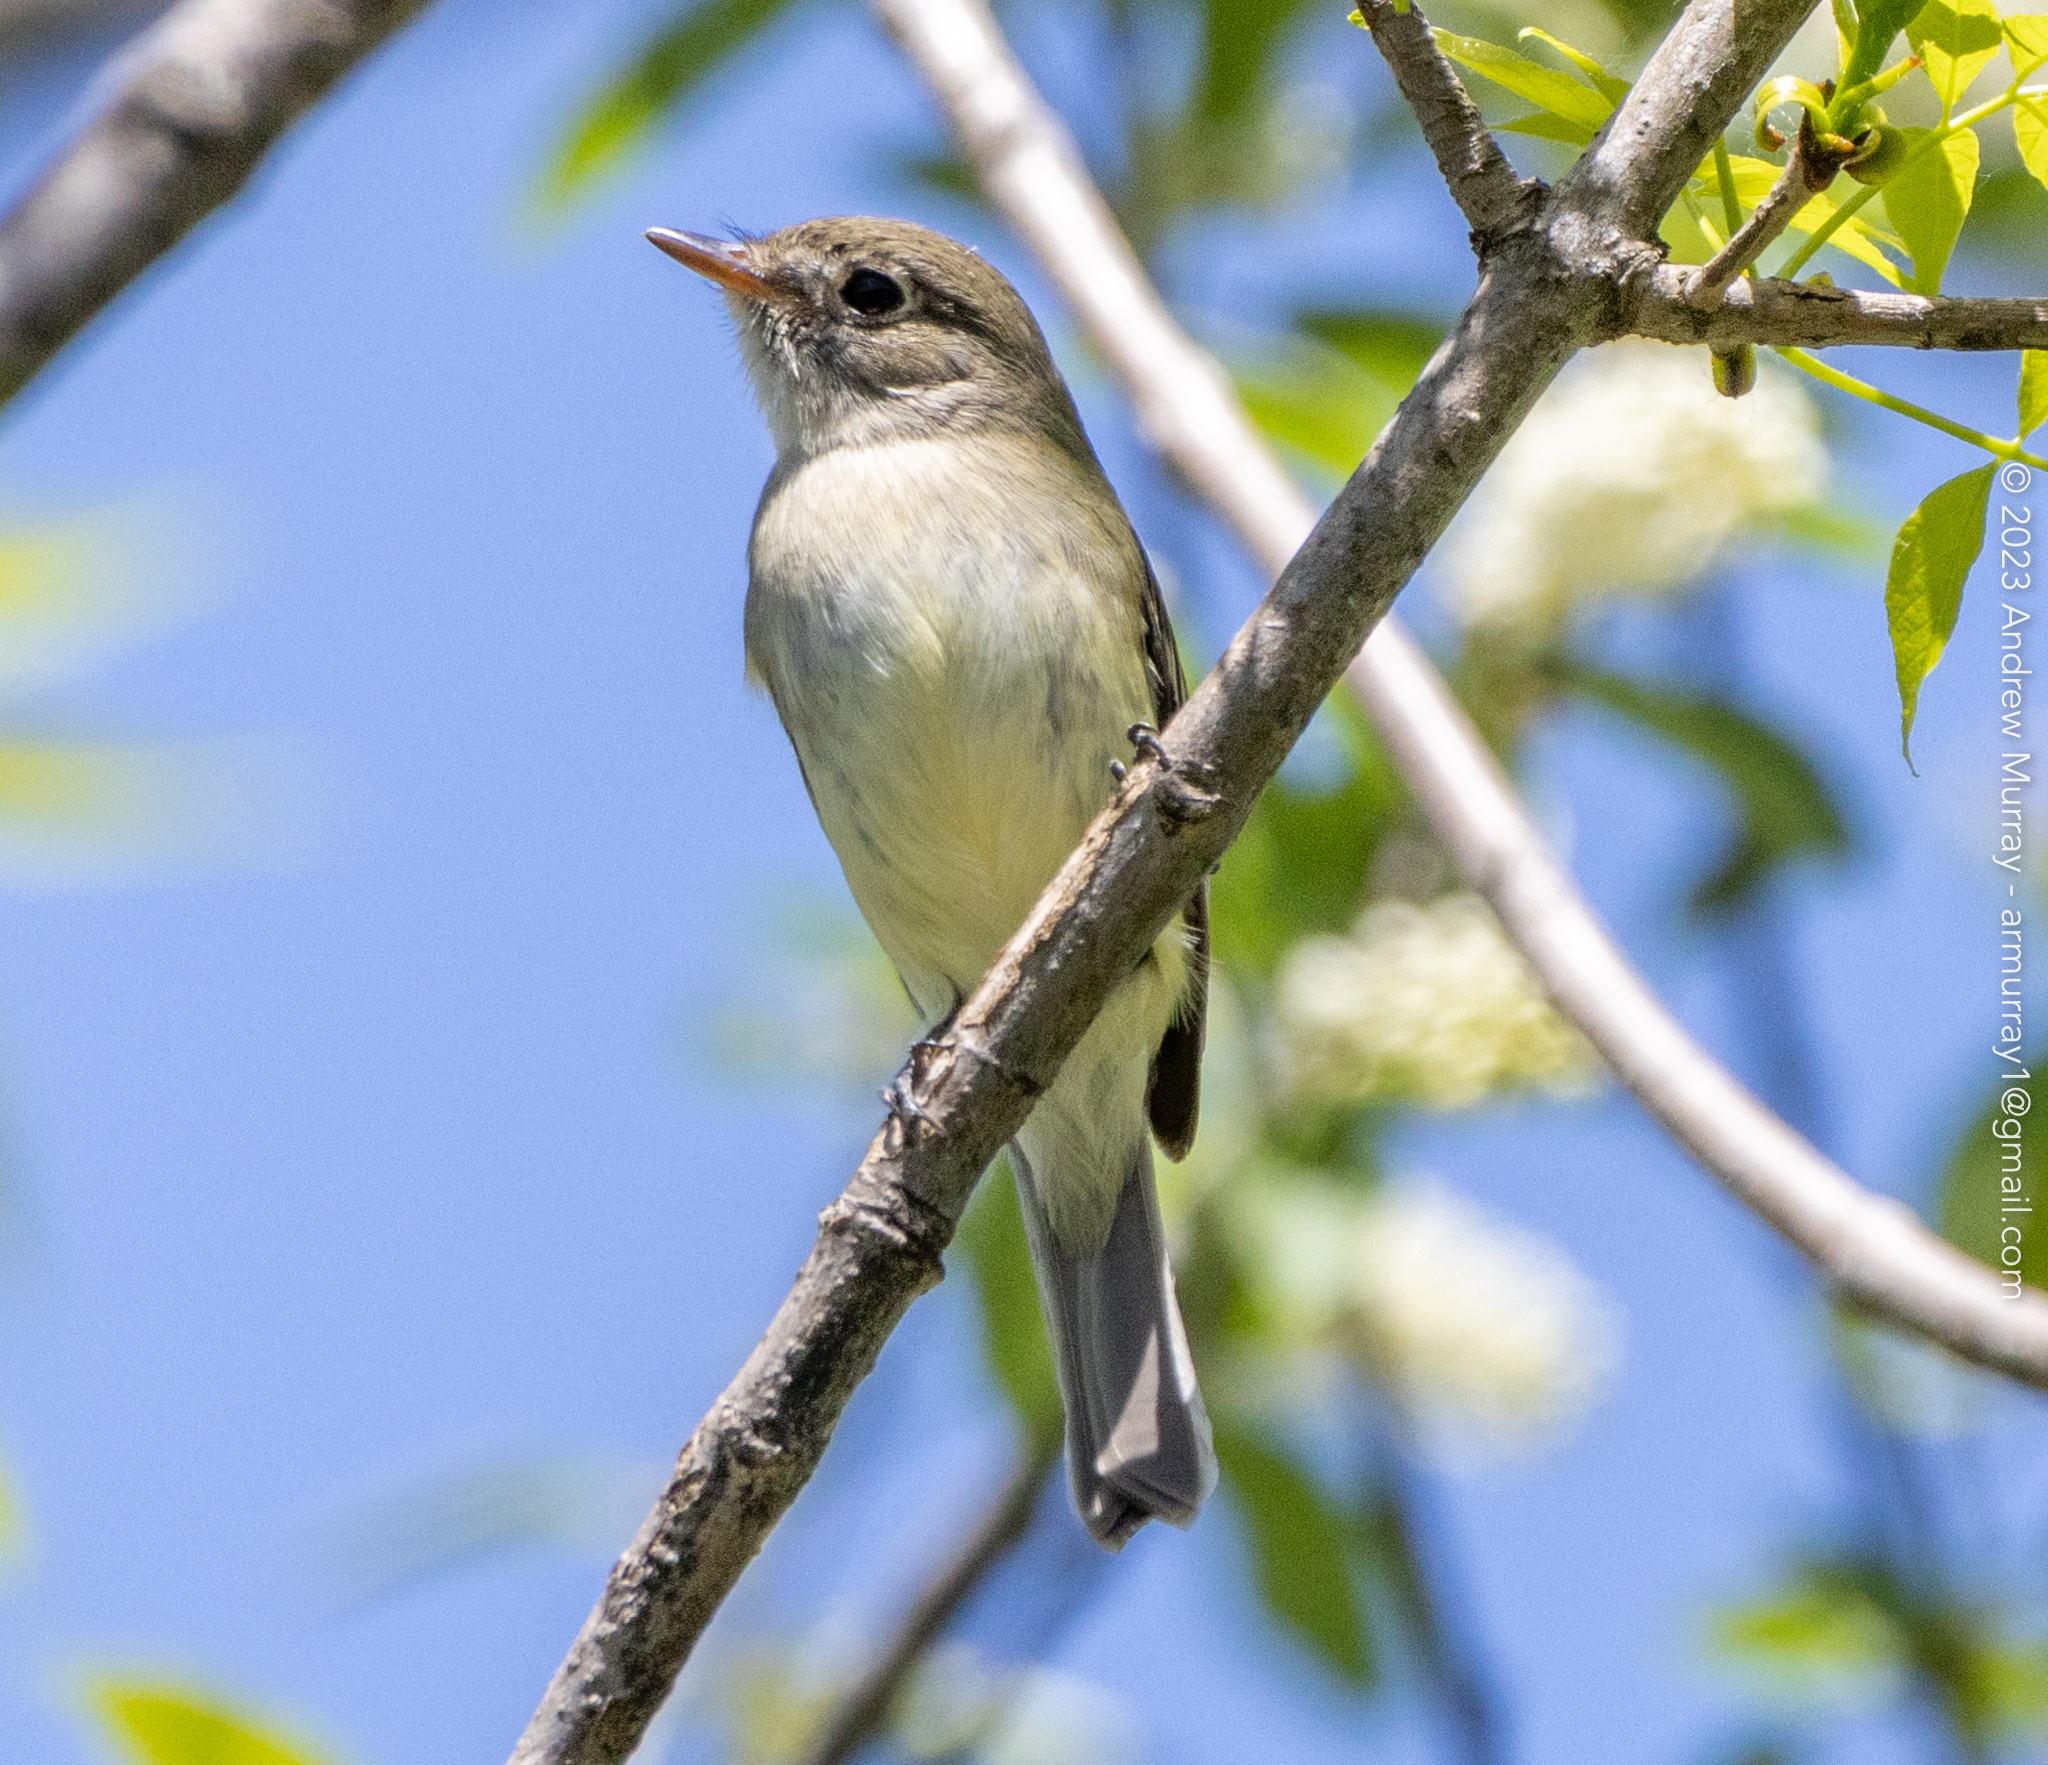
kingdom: Animalia
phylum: Chordata
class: Aves
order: Passeriformes
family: Tyrannidae
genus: Empidonax
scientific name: Empidonax minimus
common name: Least flycatcher
